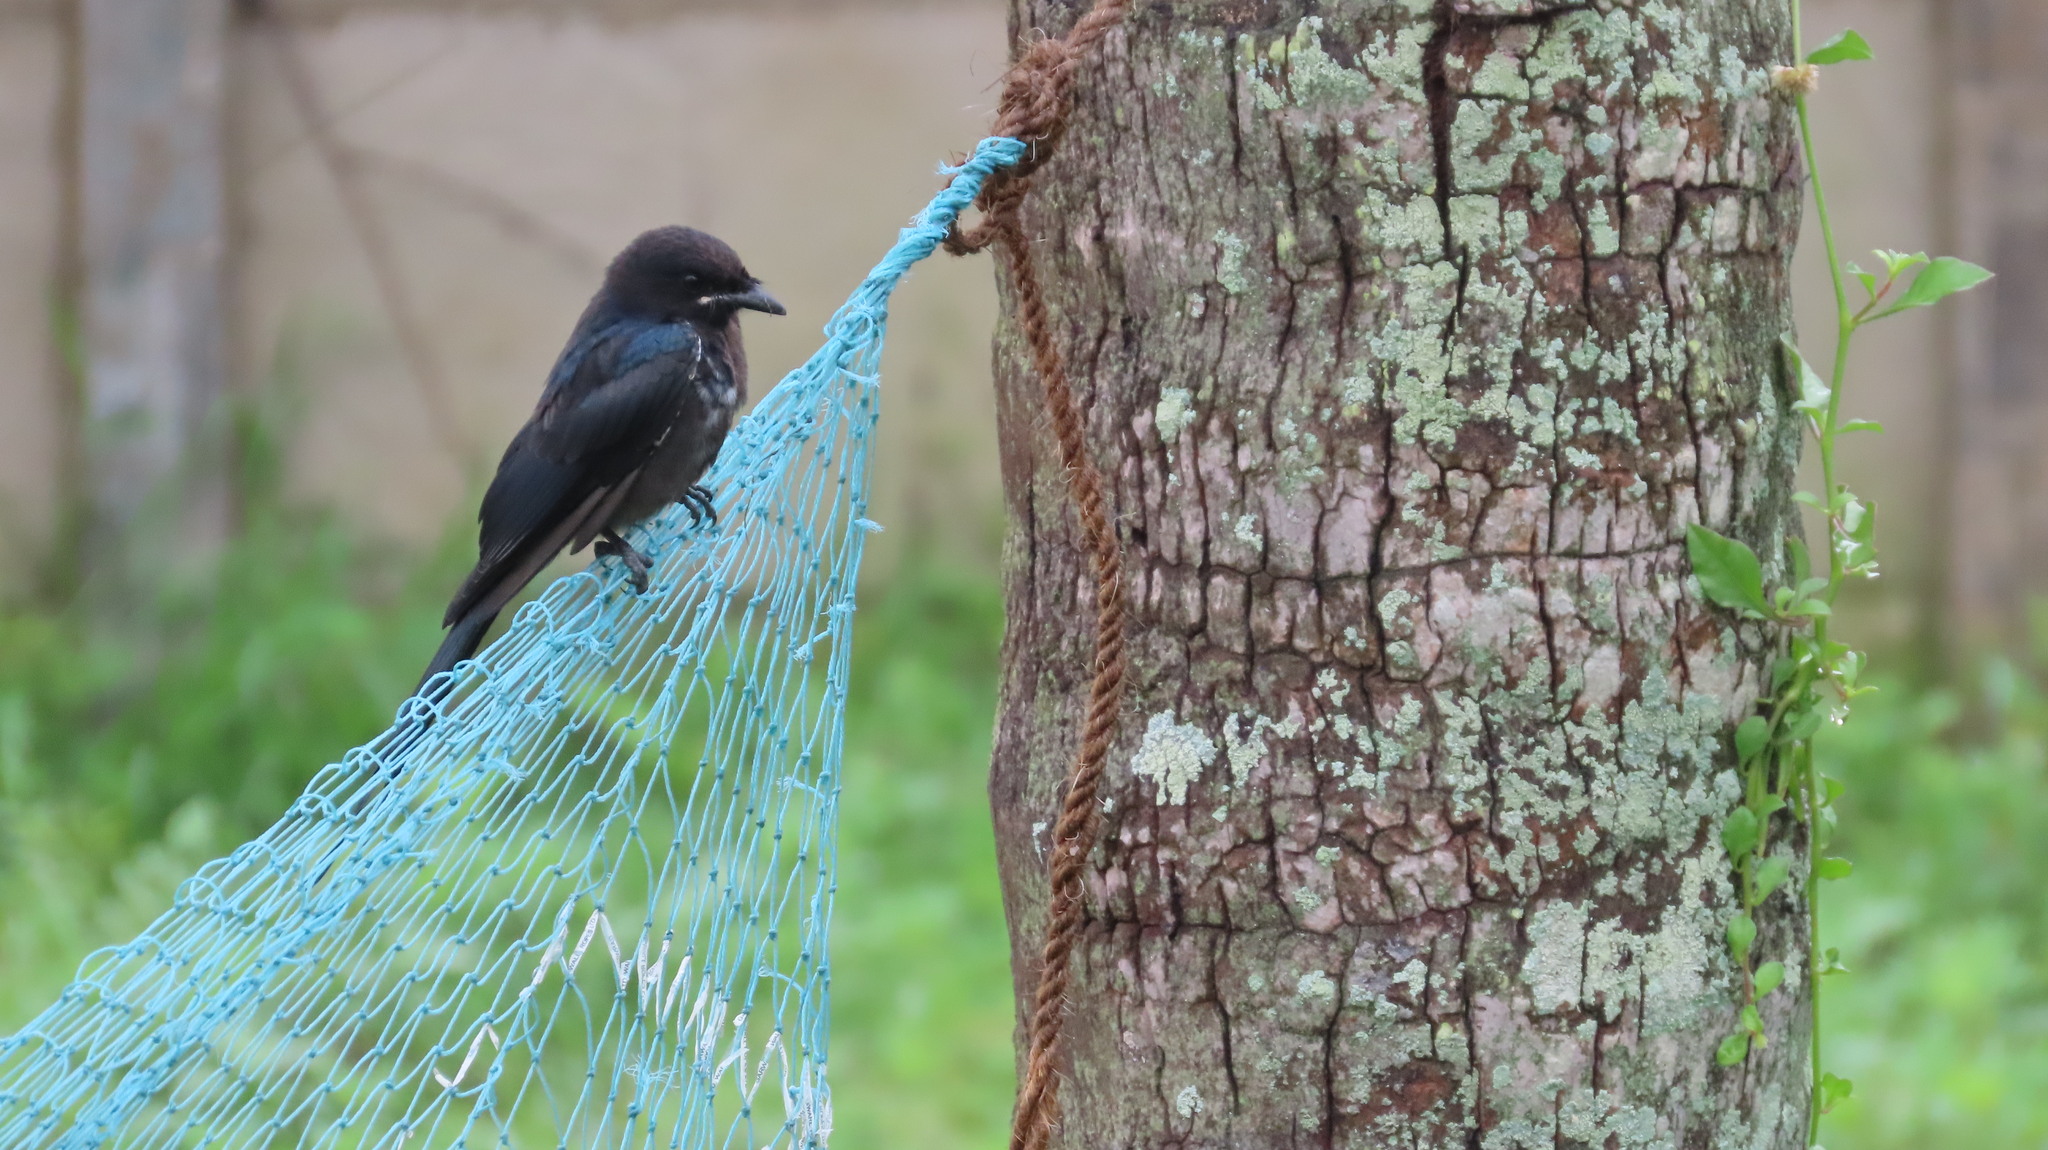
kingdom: Animalia
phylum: Chordata
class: Aves
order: Passeriformes
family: Dicruridae
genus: Dicrurus
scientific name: Dicrurus macrocercus
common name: Black drongo
